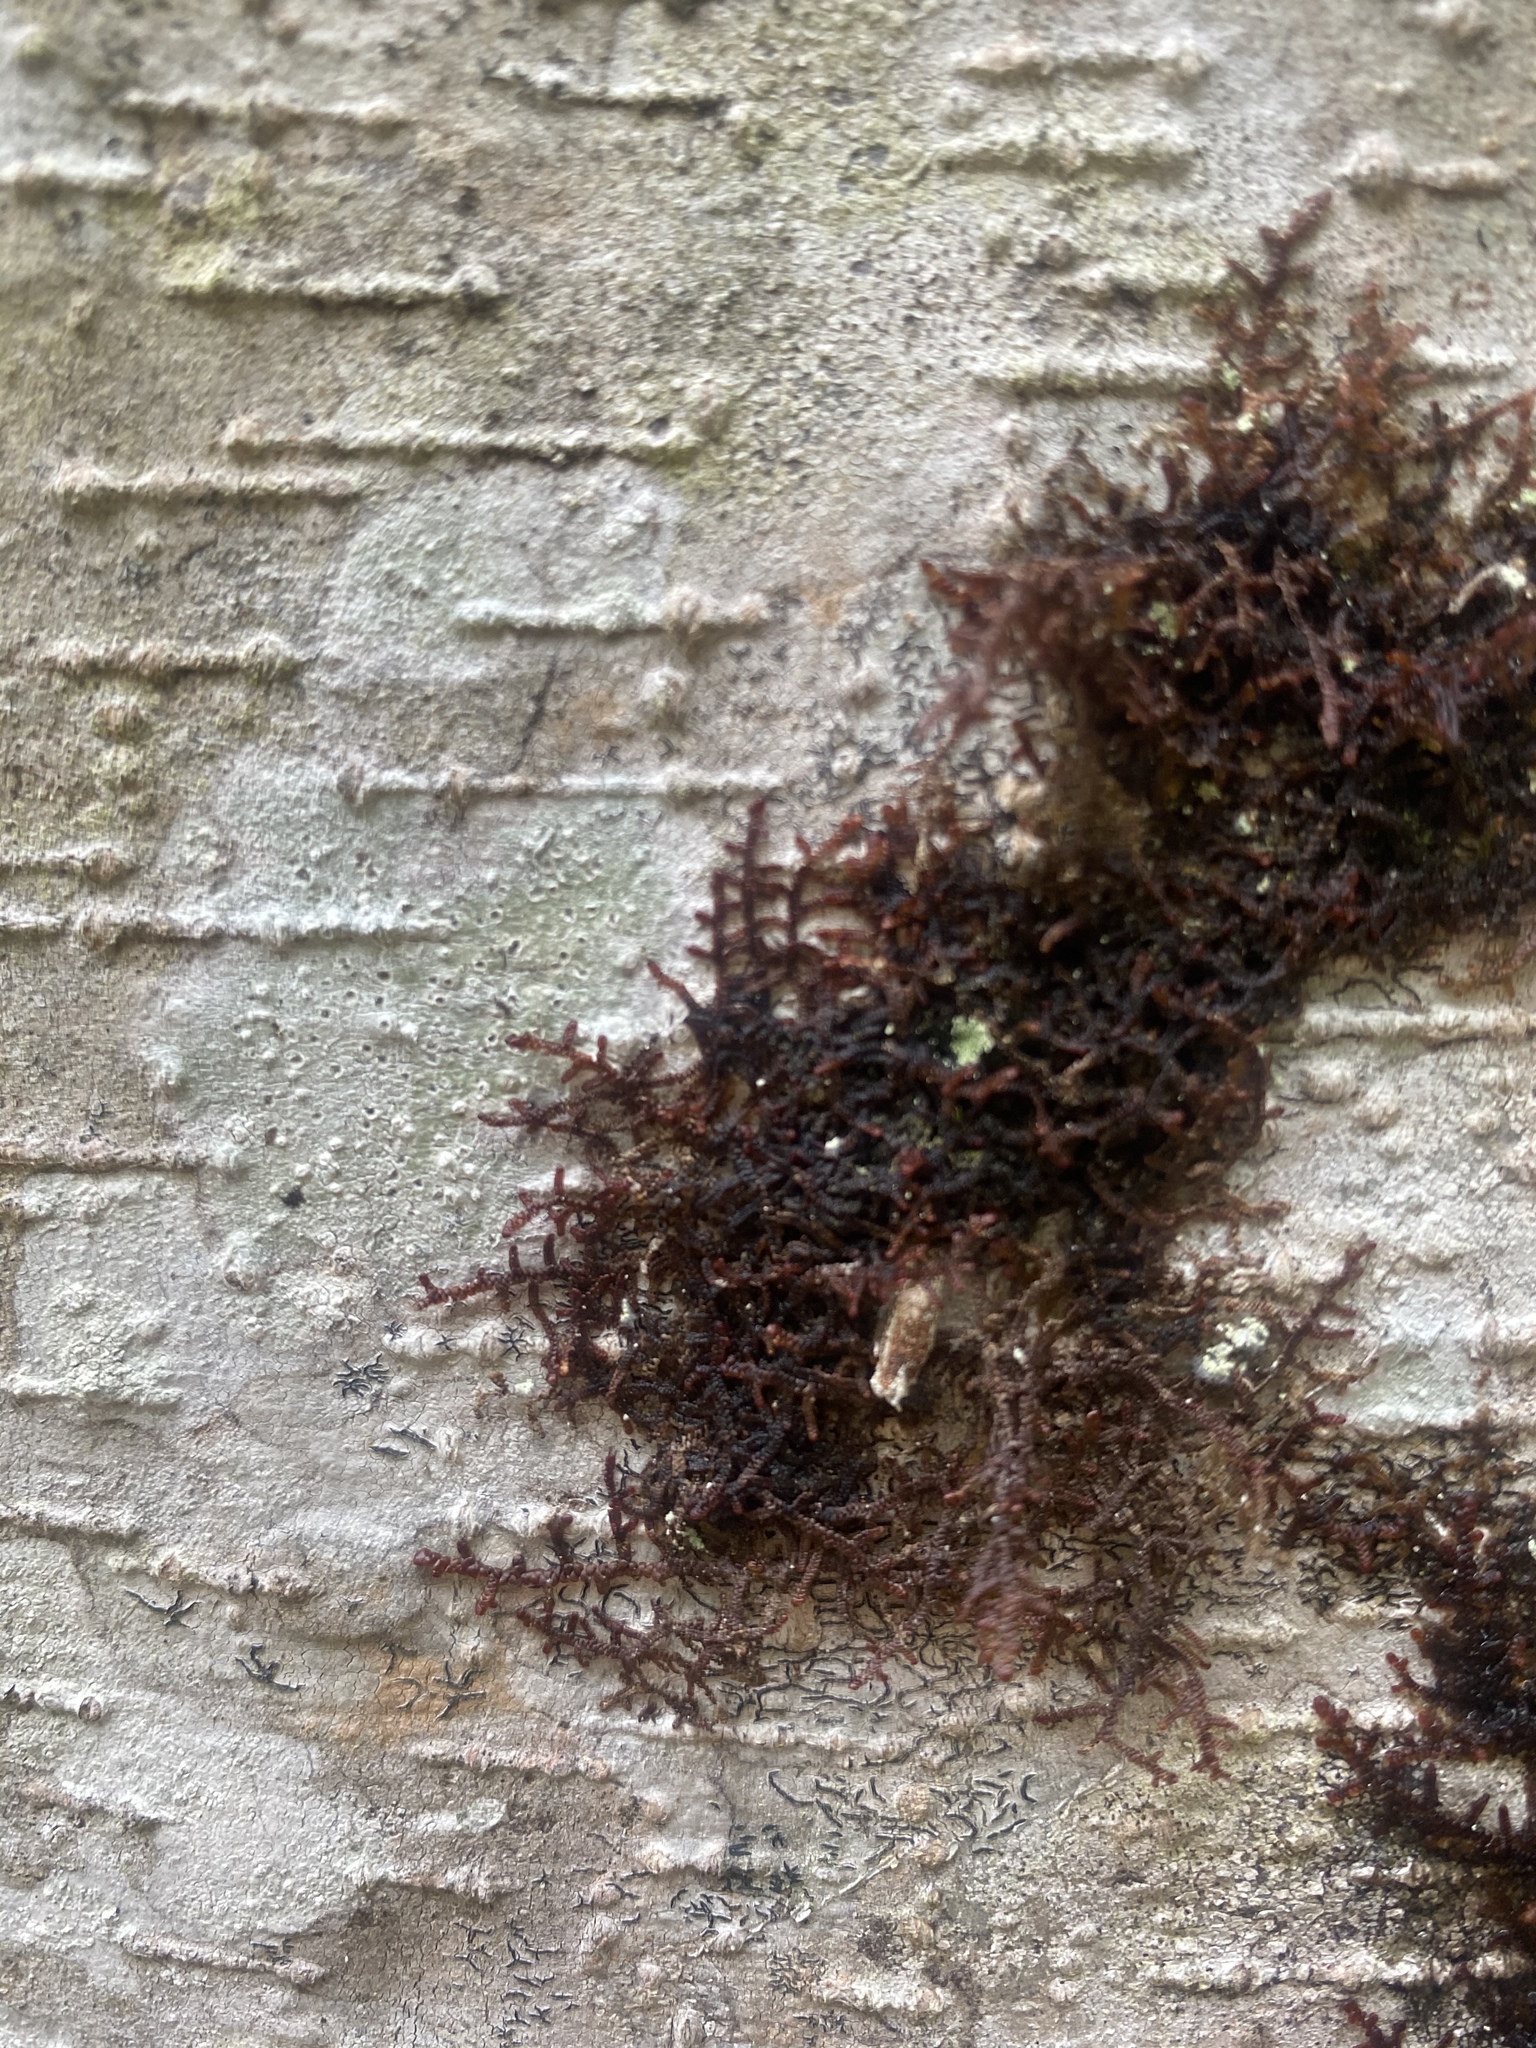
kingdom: Plantae
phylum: Marchantiophyta
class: Jungermanniopsida
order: Porellales
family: Frullaniaceae
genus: Frullania
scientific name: Frullania nisquallensis
